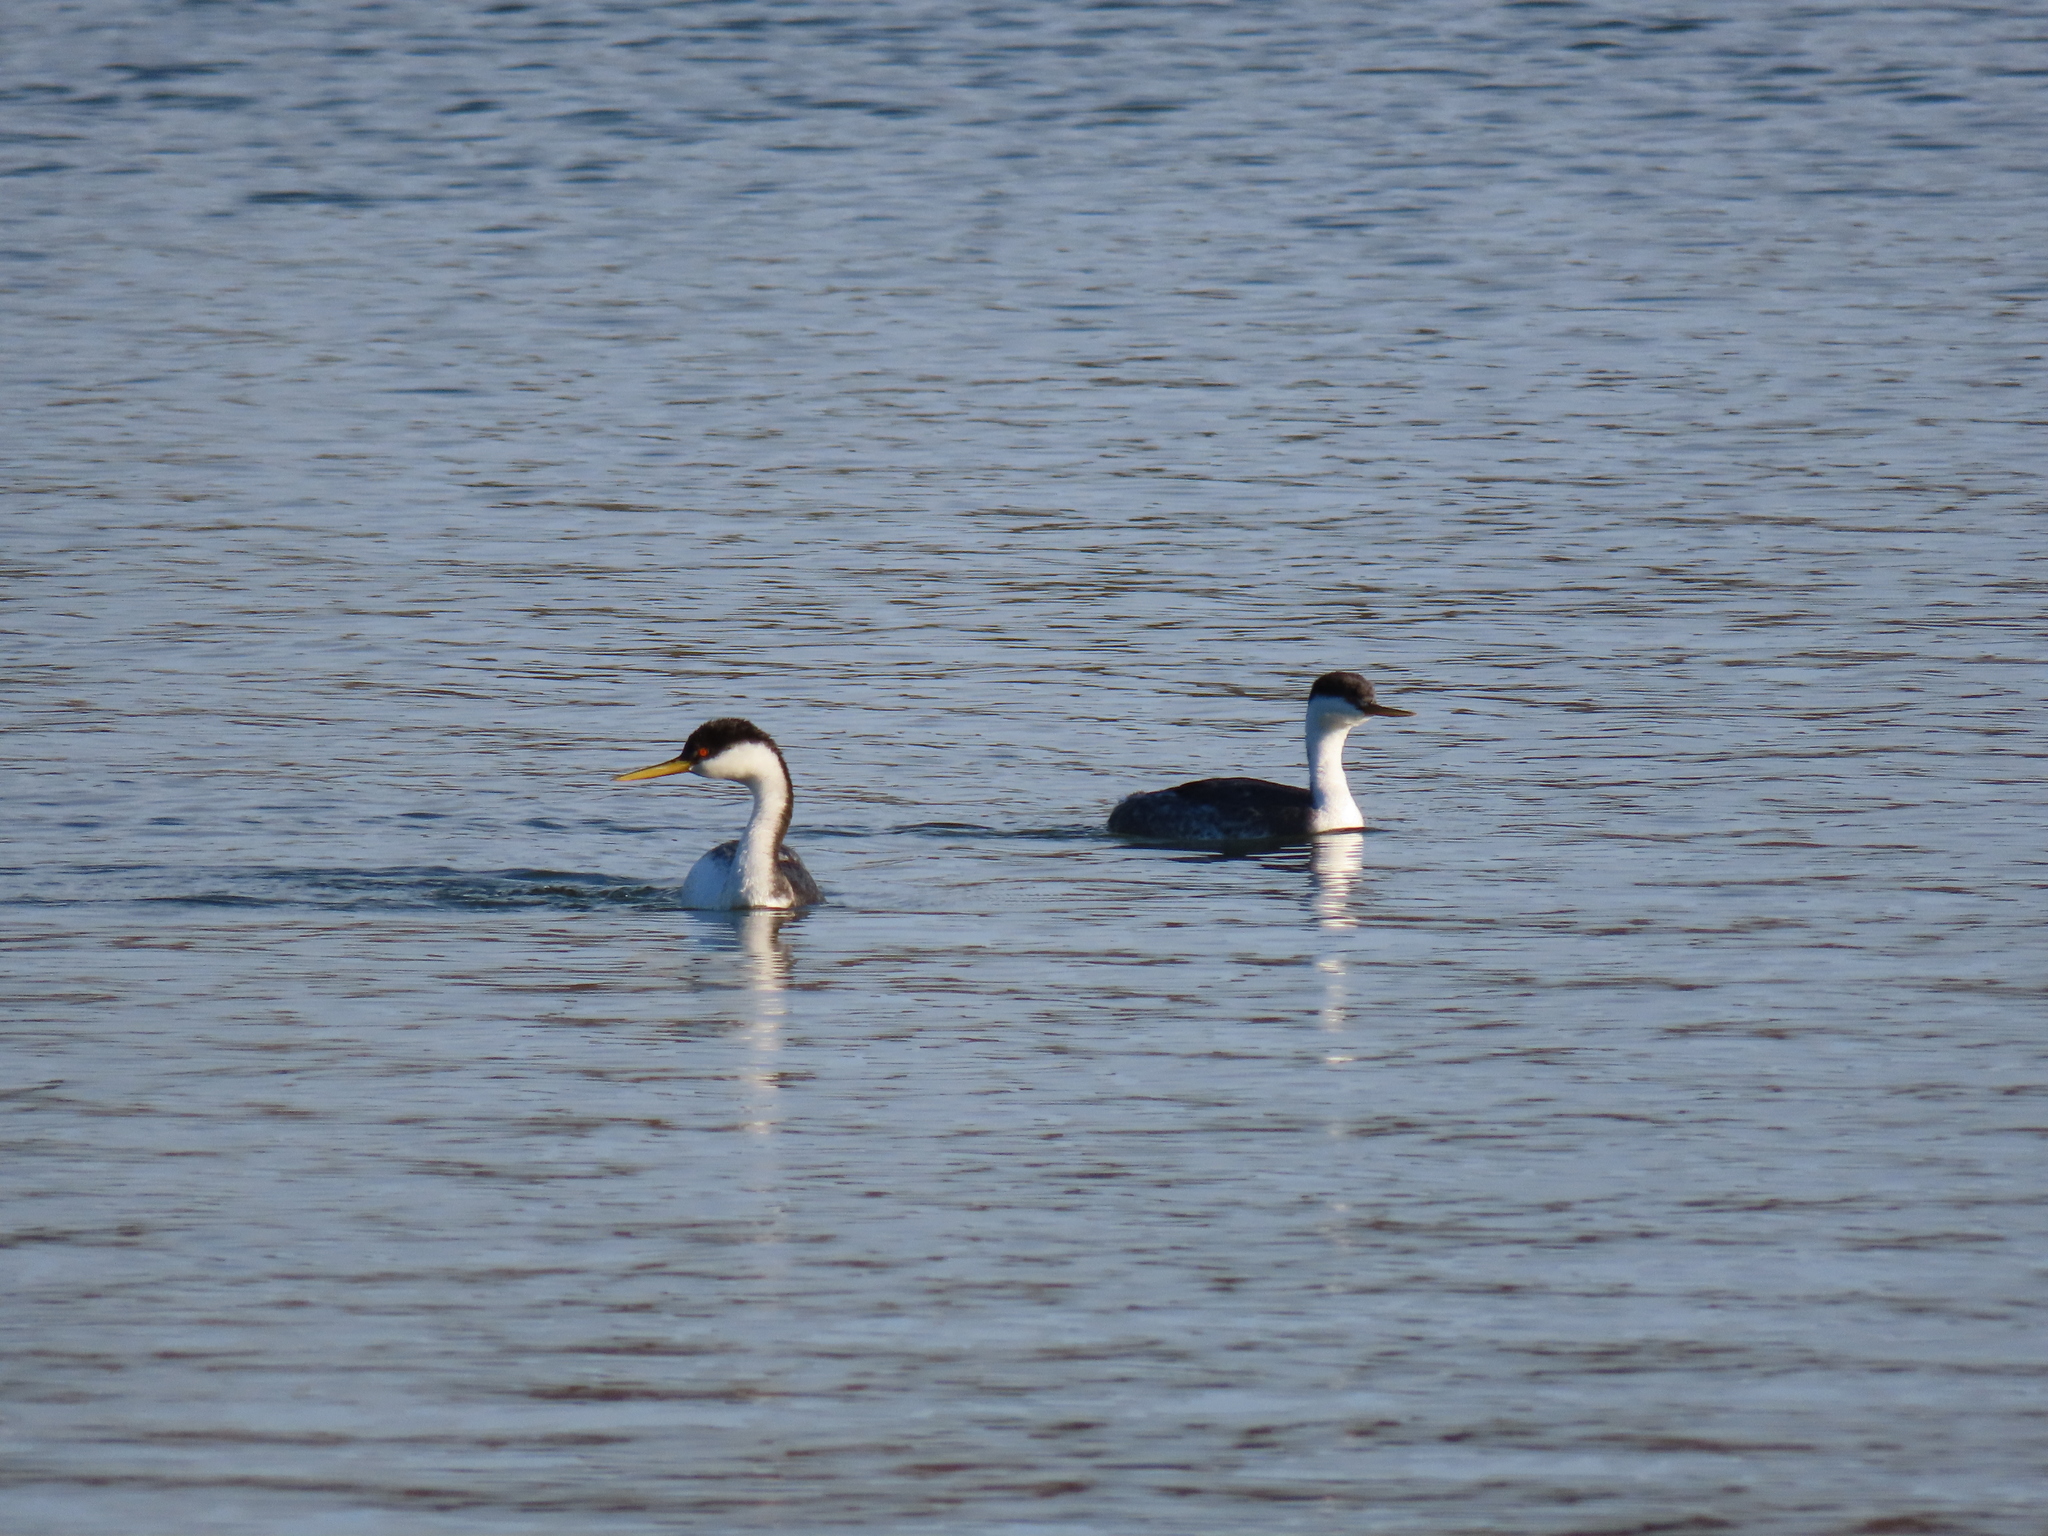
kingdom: Animalia
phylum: Chordata
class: Aves
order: Podicipediformes
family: Podicipedidae
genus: Aechmophorus
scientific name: Aechmophorus occidentalis
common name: Western grebe
